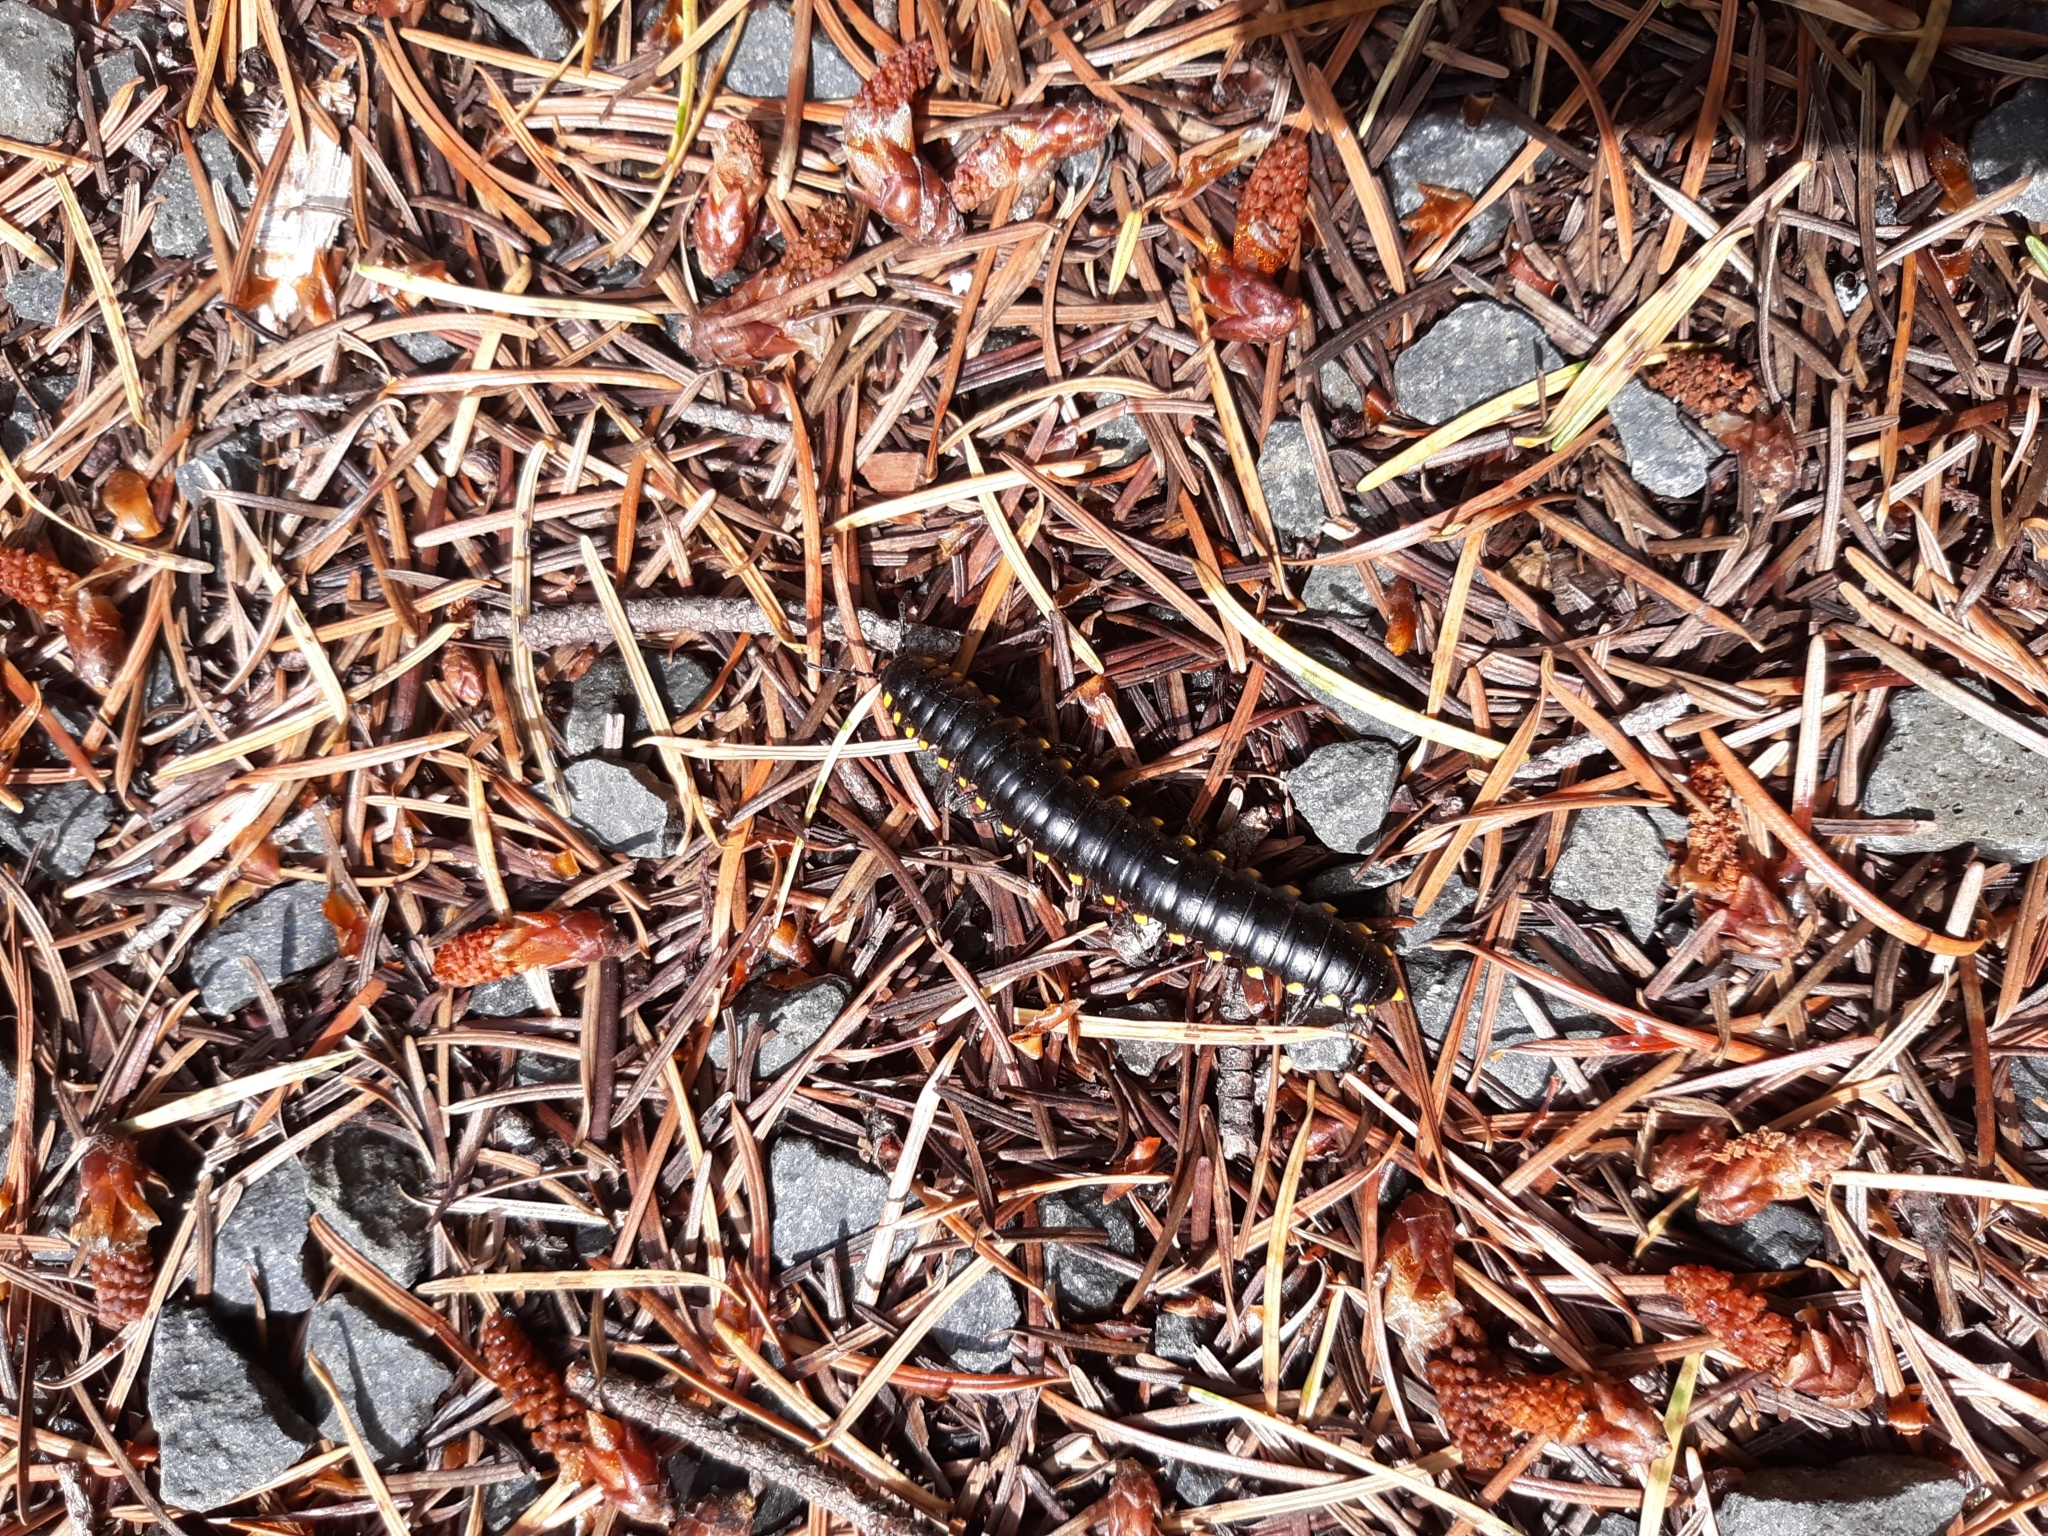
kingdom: Animalia
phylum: Arthropoda
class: Diplopoda
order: Polydesmida
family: Xystodesmidae
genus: Harpaphe
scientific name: Harpaphe haydeniana
